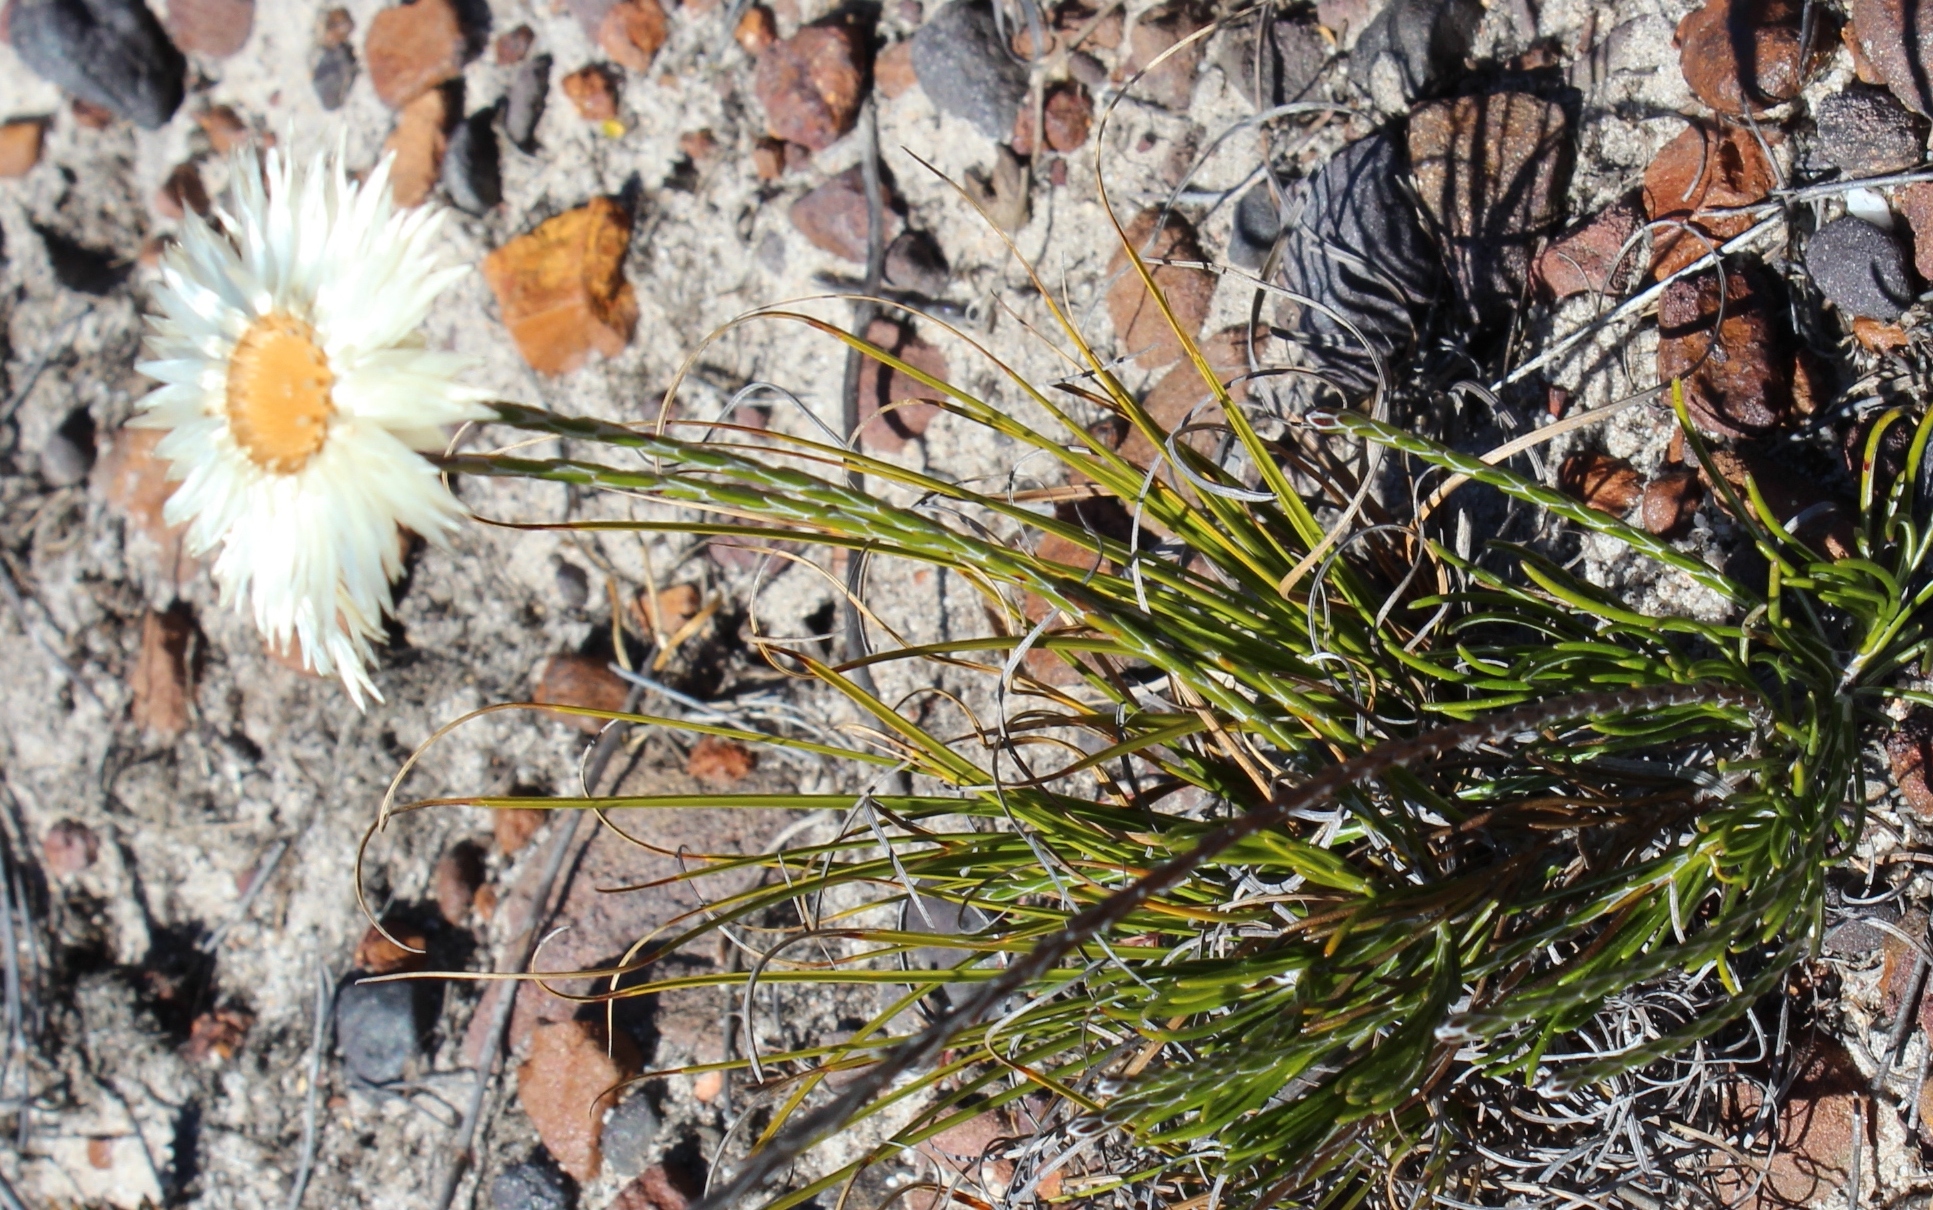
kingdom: Plantae
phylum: Tracheophyta
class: Magnoliopsida
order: Asterales
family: Asteraceae
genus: Edmondia
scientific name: Edmondia sesamoides
